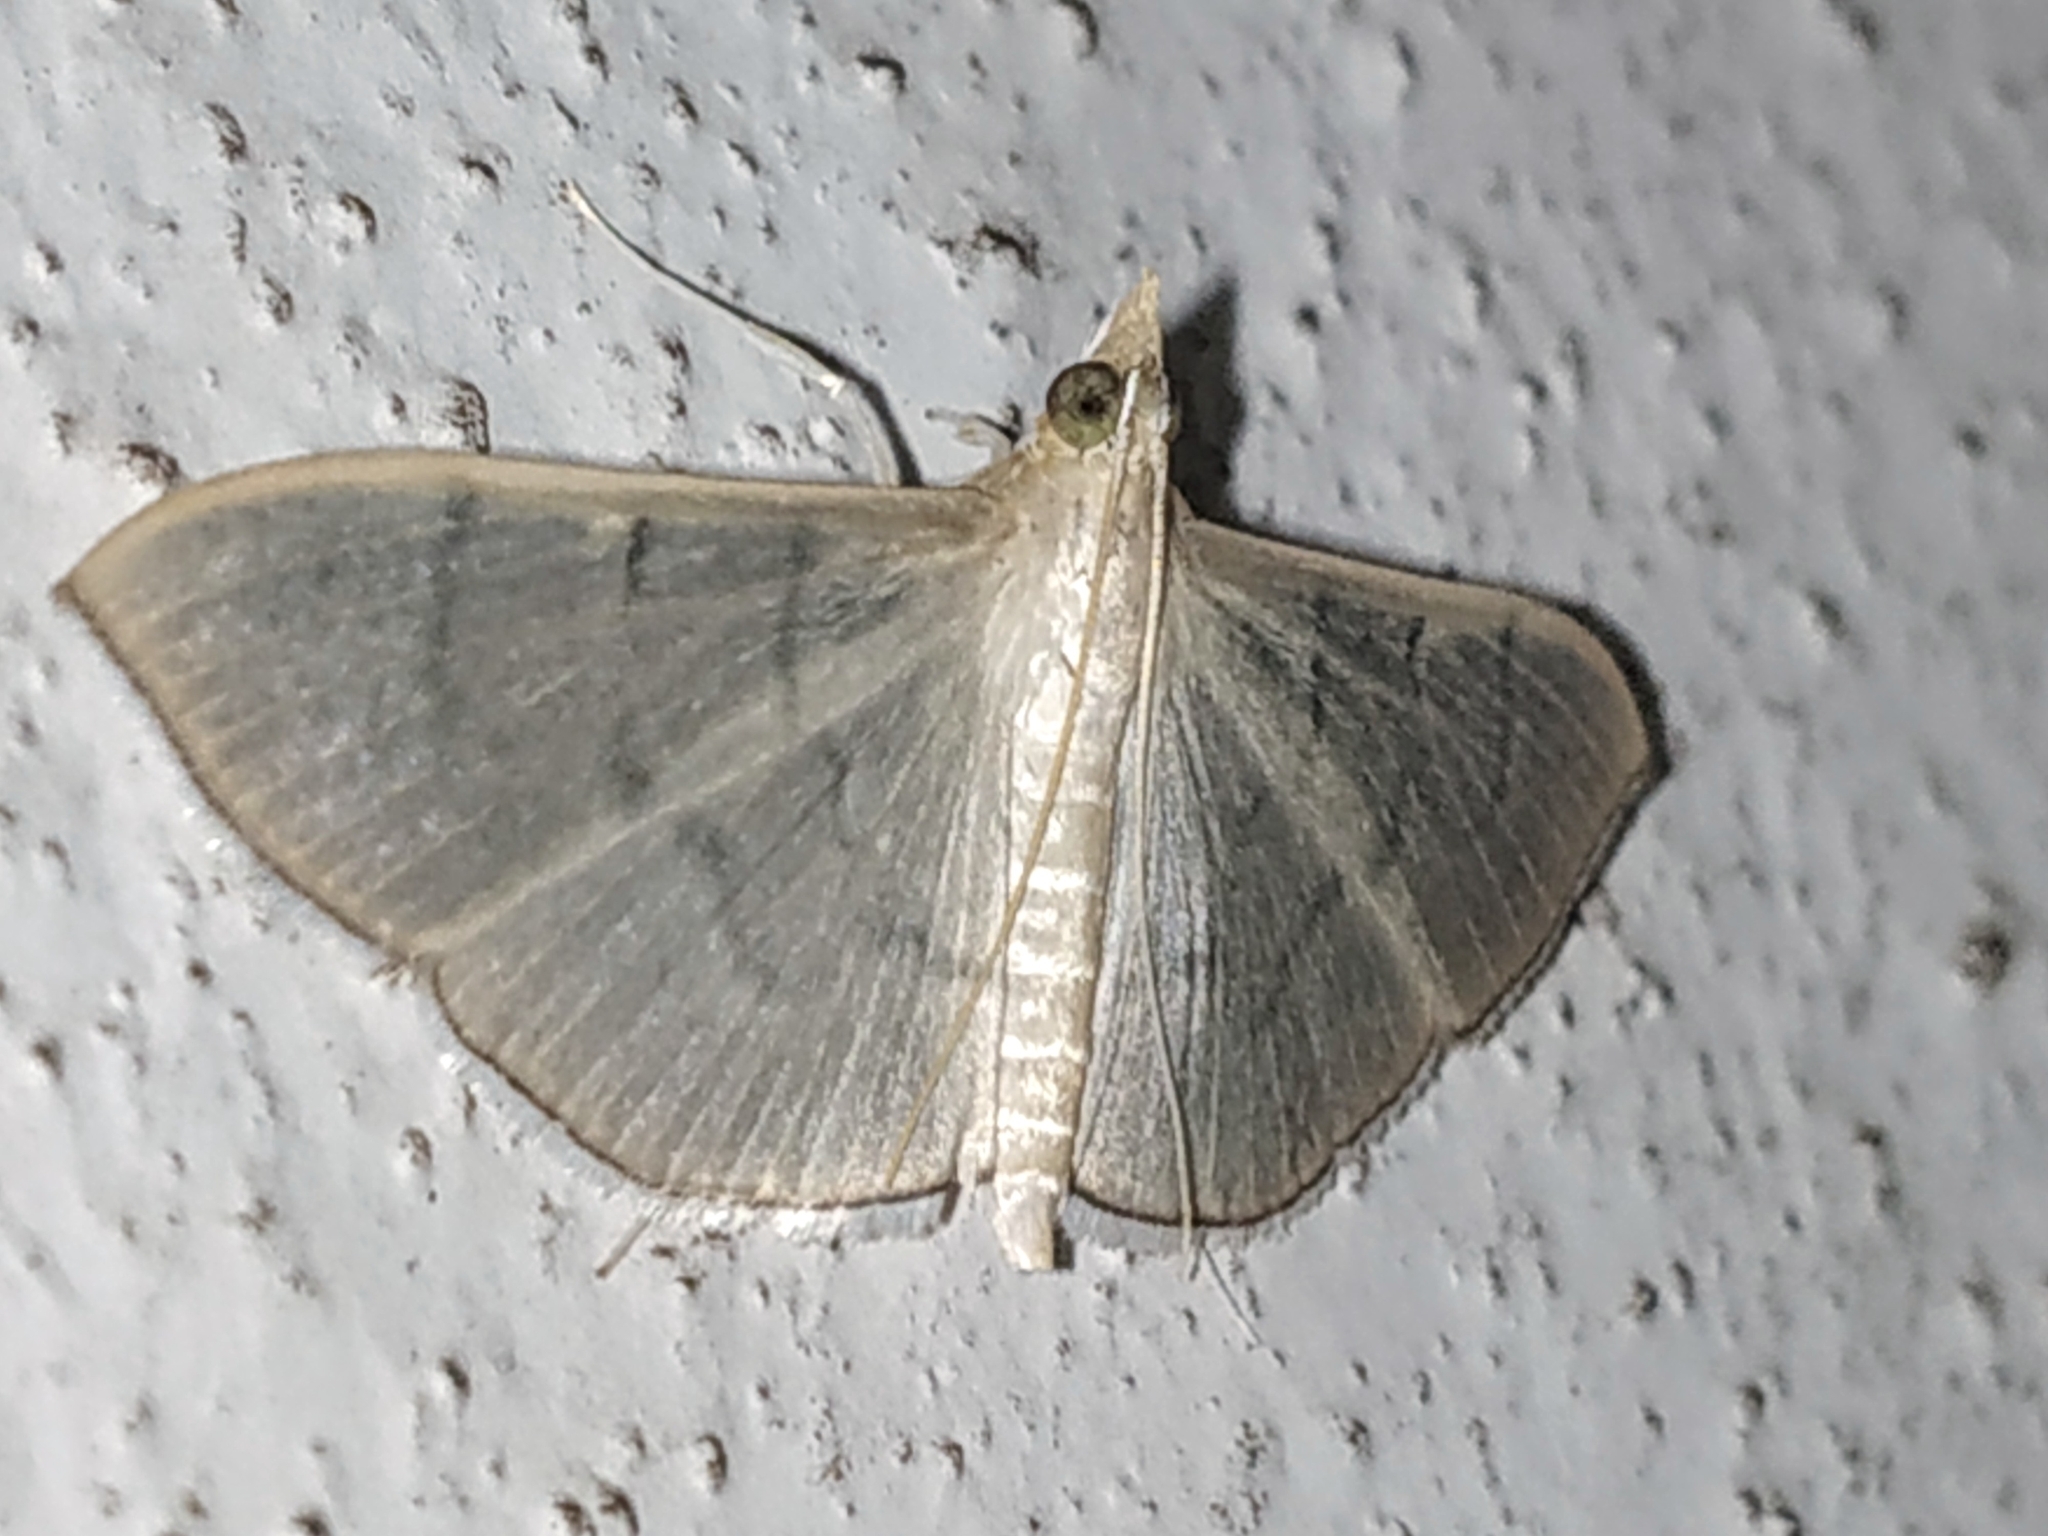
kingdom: Animalia
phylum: Arthropoda
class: Insecta
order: Lepidoptera
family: Crambidae
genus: Lamprophaia
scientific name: Lamprophaia ablactalis
